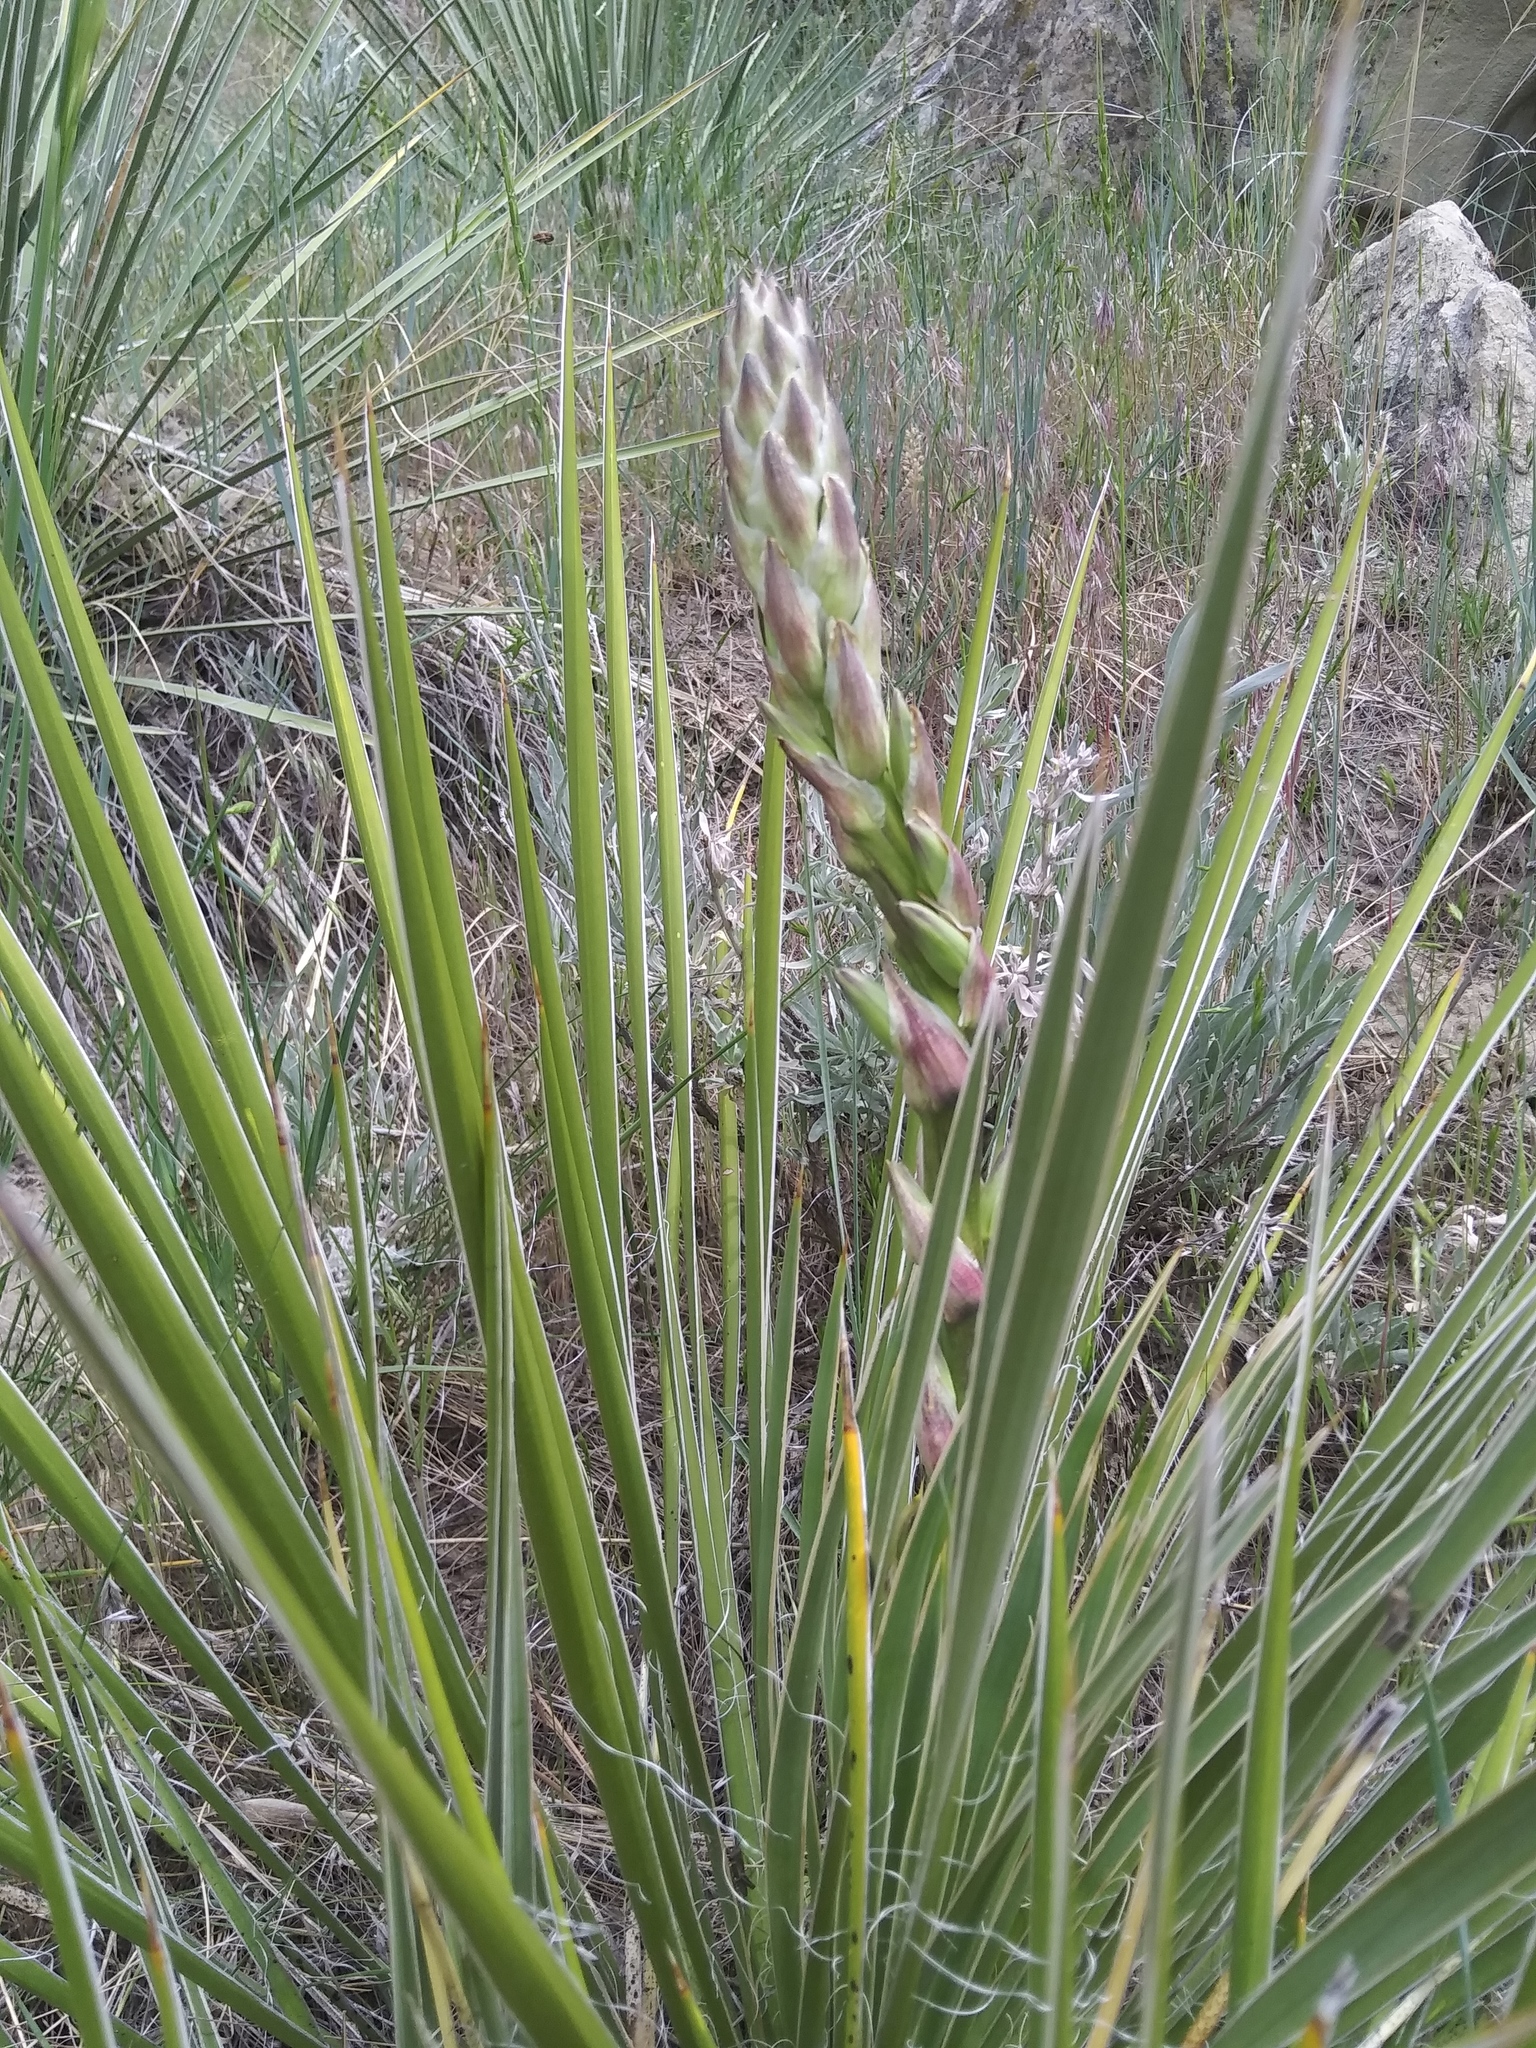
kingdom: Plantae
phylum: Tracheophyta
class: Liliopsida
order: Asparagales
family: Asparagaceae
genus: Yucca
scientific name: Yucca glauca
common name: Great plains yucca
